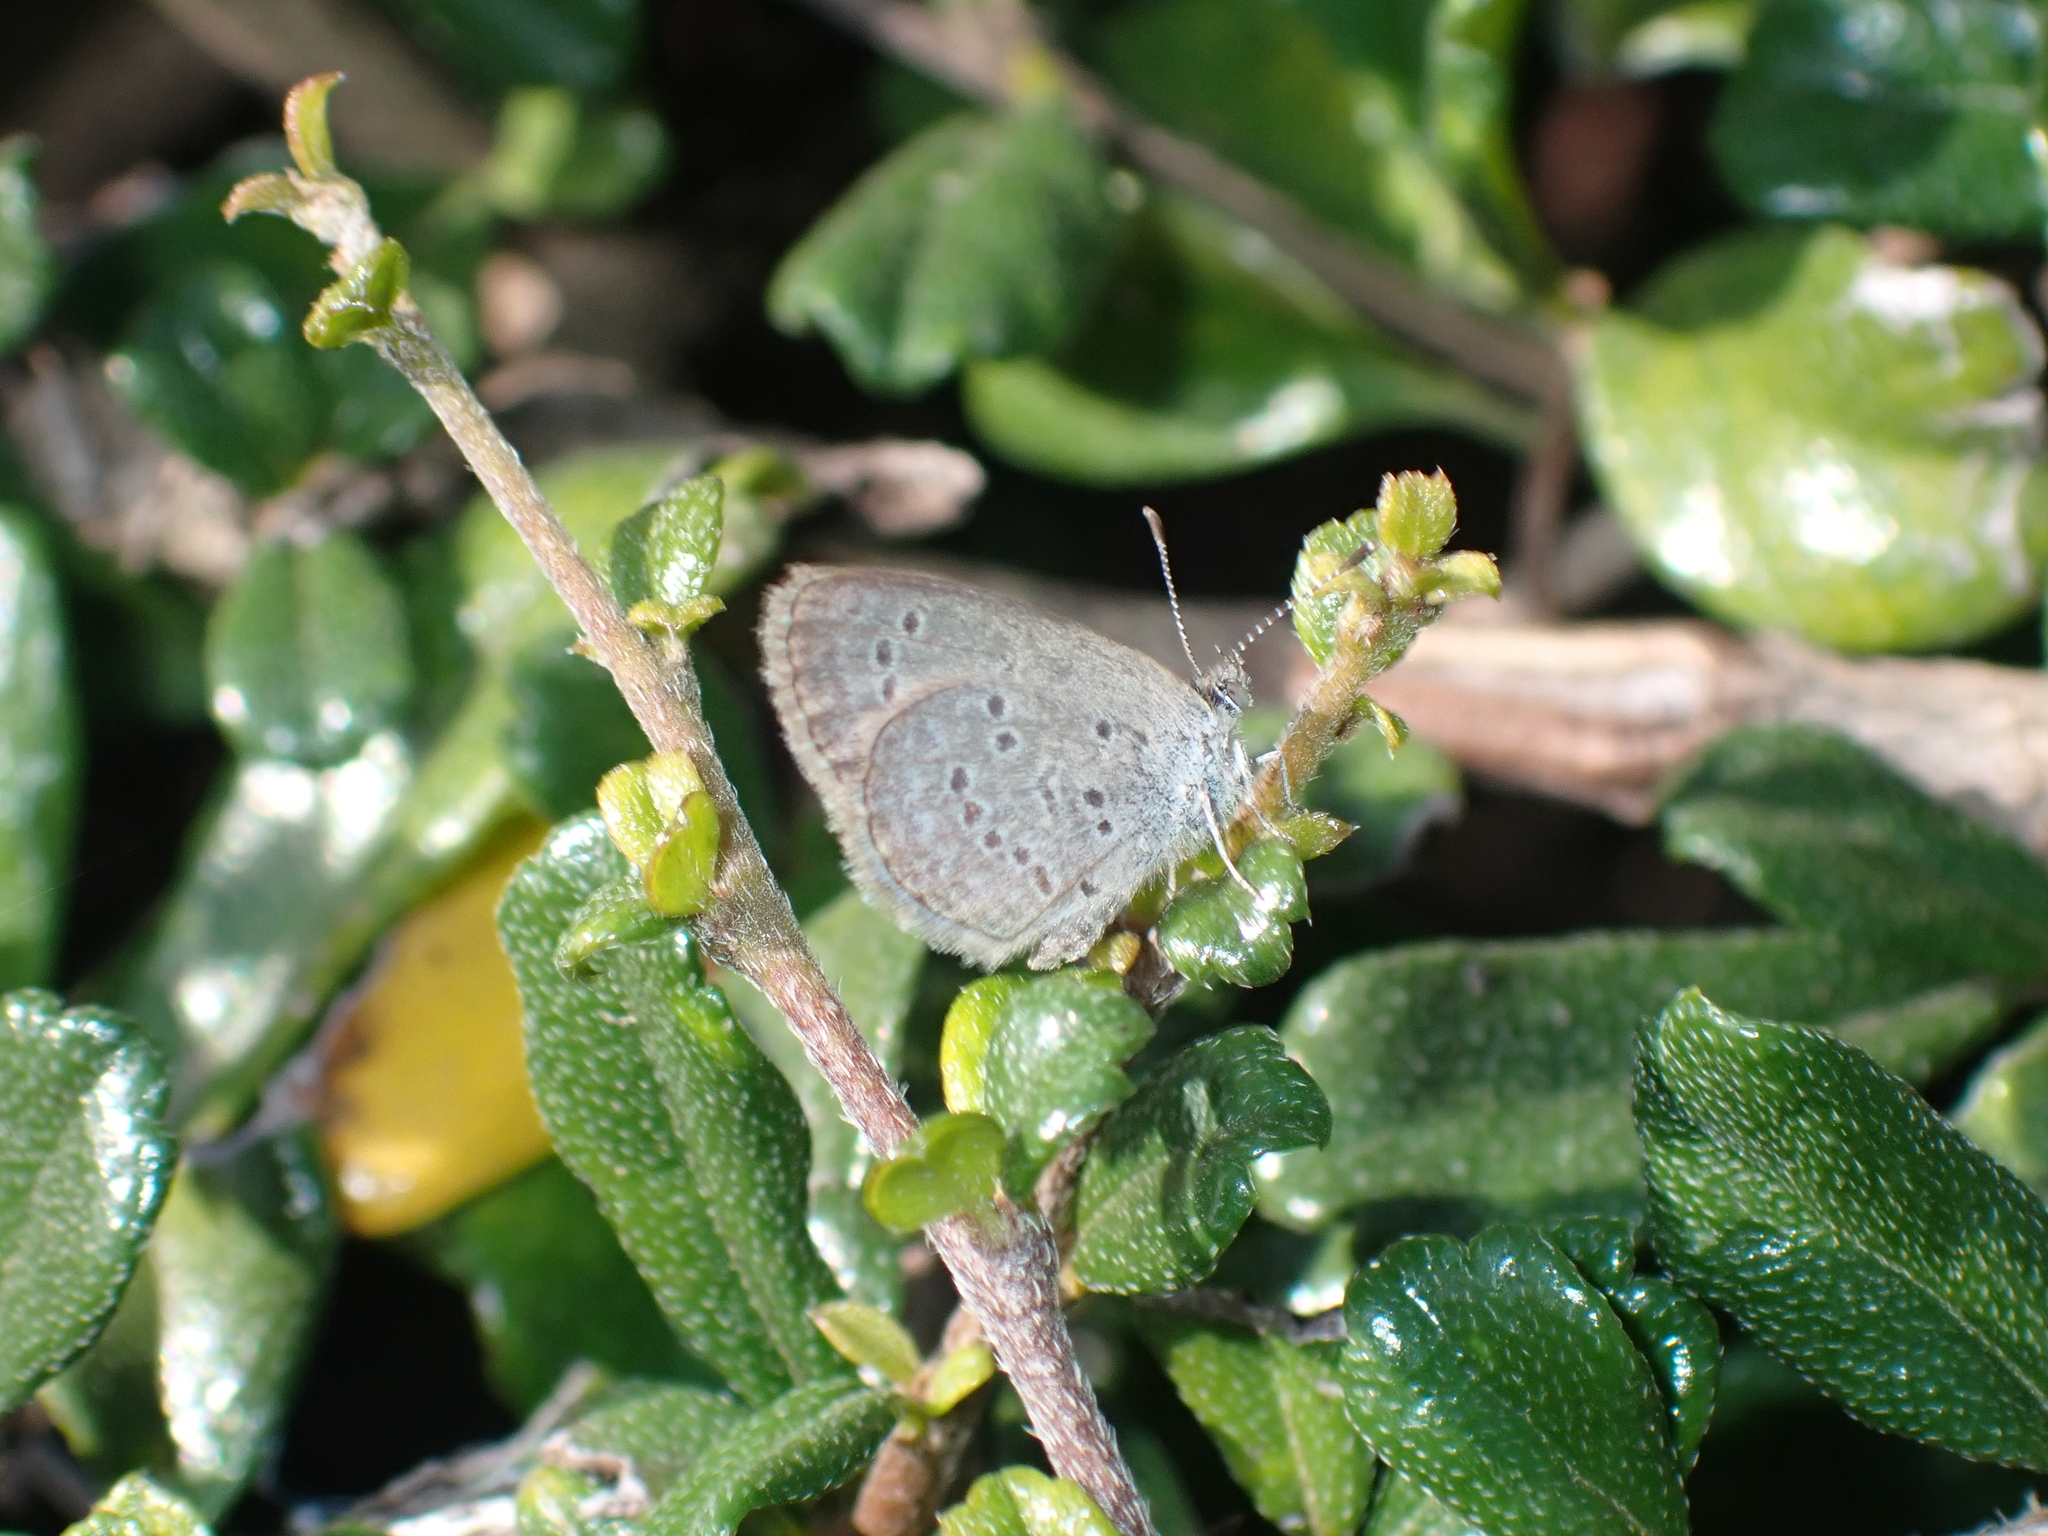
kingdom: Animalia
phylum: Arthropoda
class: Insecta
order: Lepidoptera
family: Lycaenidae
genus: Zizina
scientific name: Zizina otis
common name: Lesser grass blue
